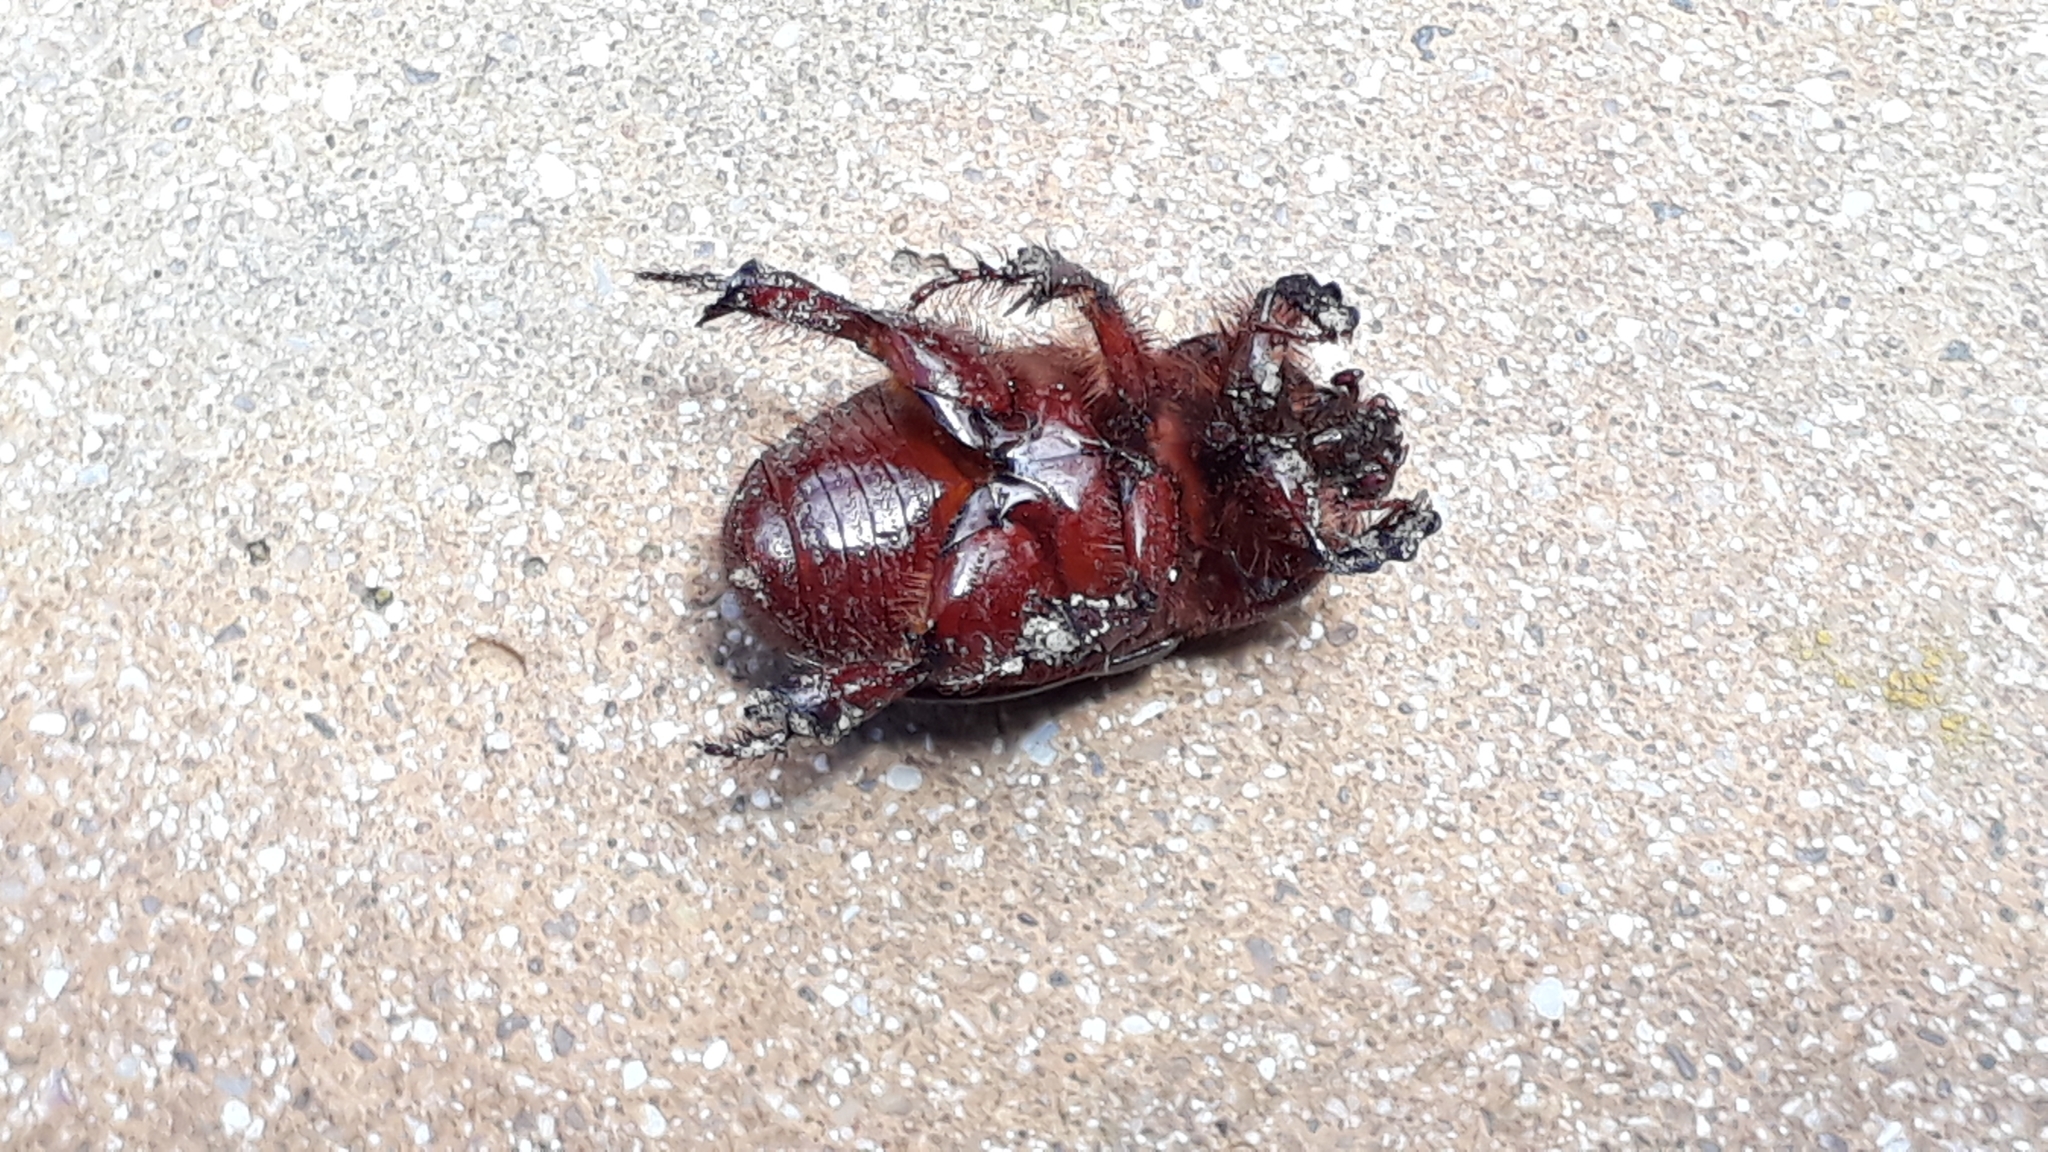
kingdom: Animalia
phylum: Arthropoda
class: Insecta
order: Coleoptera
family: Scarabaeidae
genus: Temnorhynchus
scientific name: Temnorhynchus retusus
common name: Plate-faced beetle
